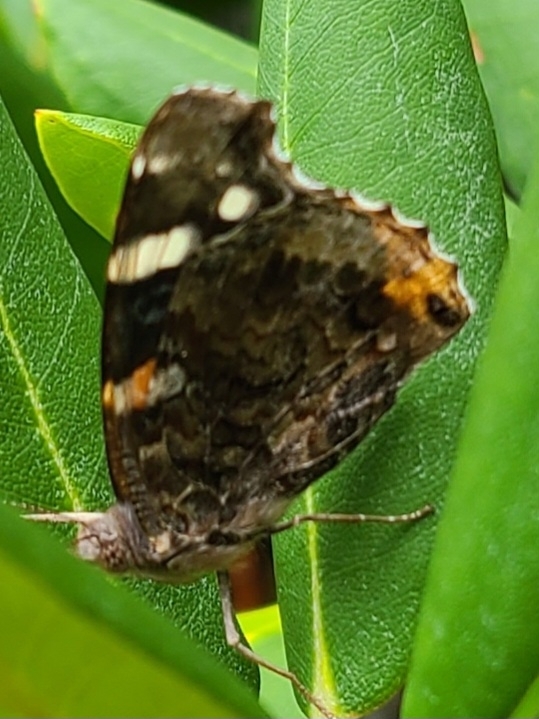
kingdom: Animalia
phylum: Arthropoda
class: Insecta
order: Lepidoptera
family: Nymphalidae
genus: Vanessa
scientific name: Vanessa atalanta
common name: Red admiral
